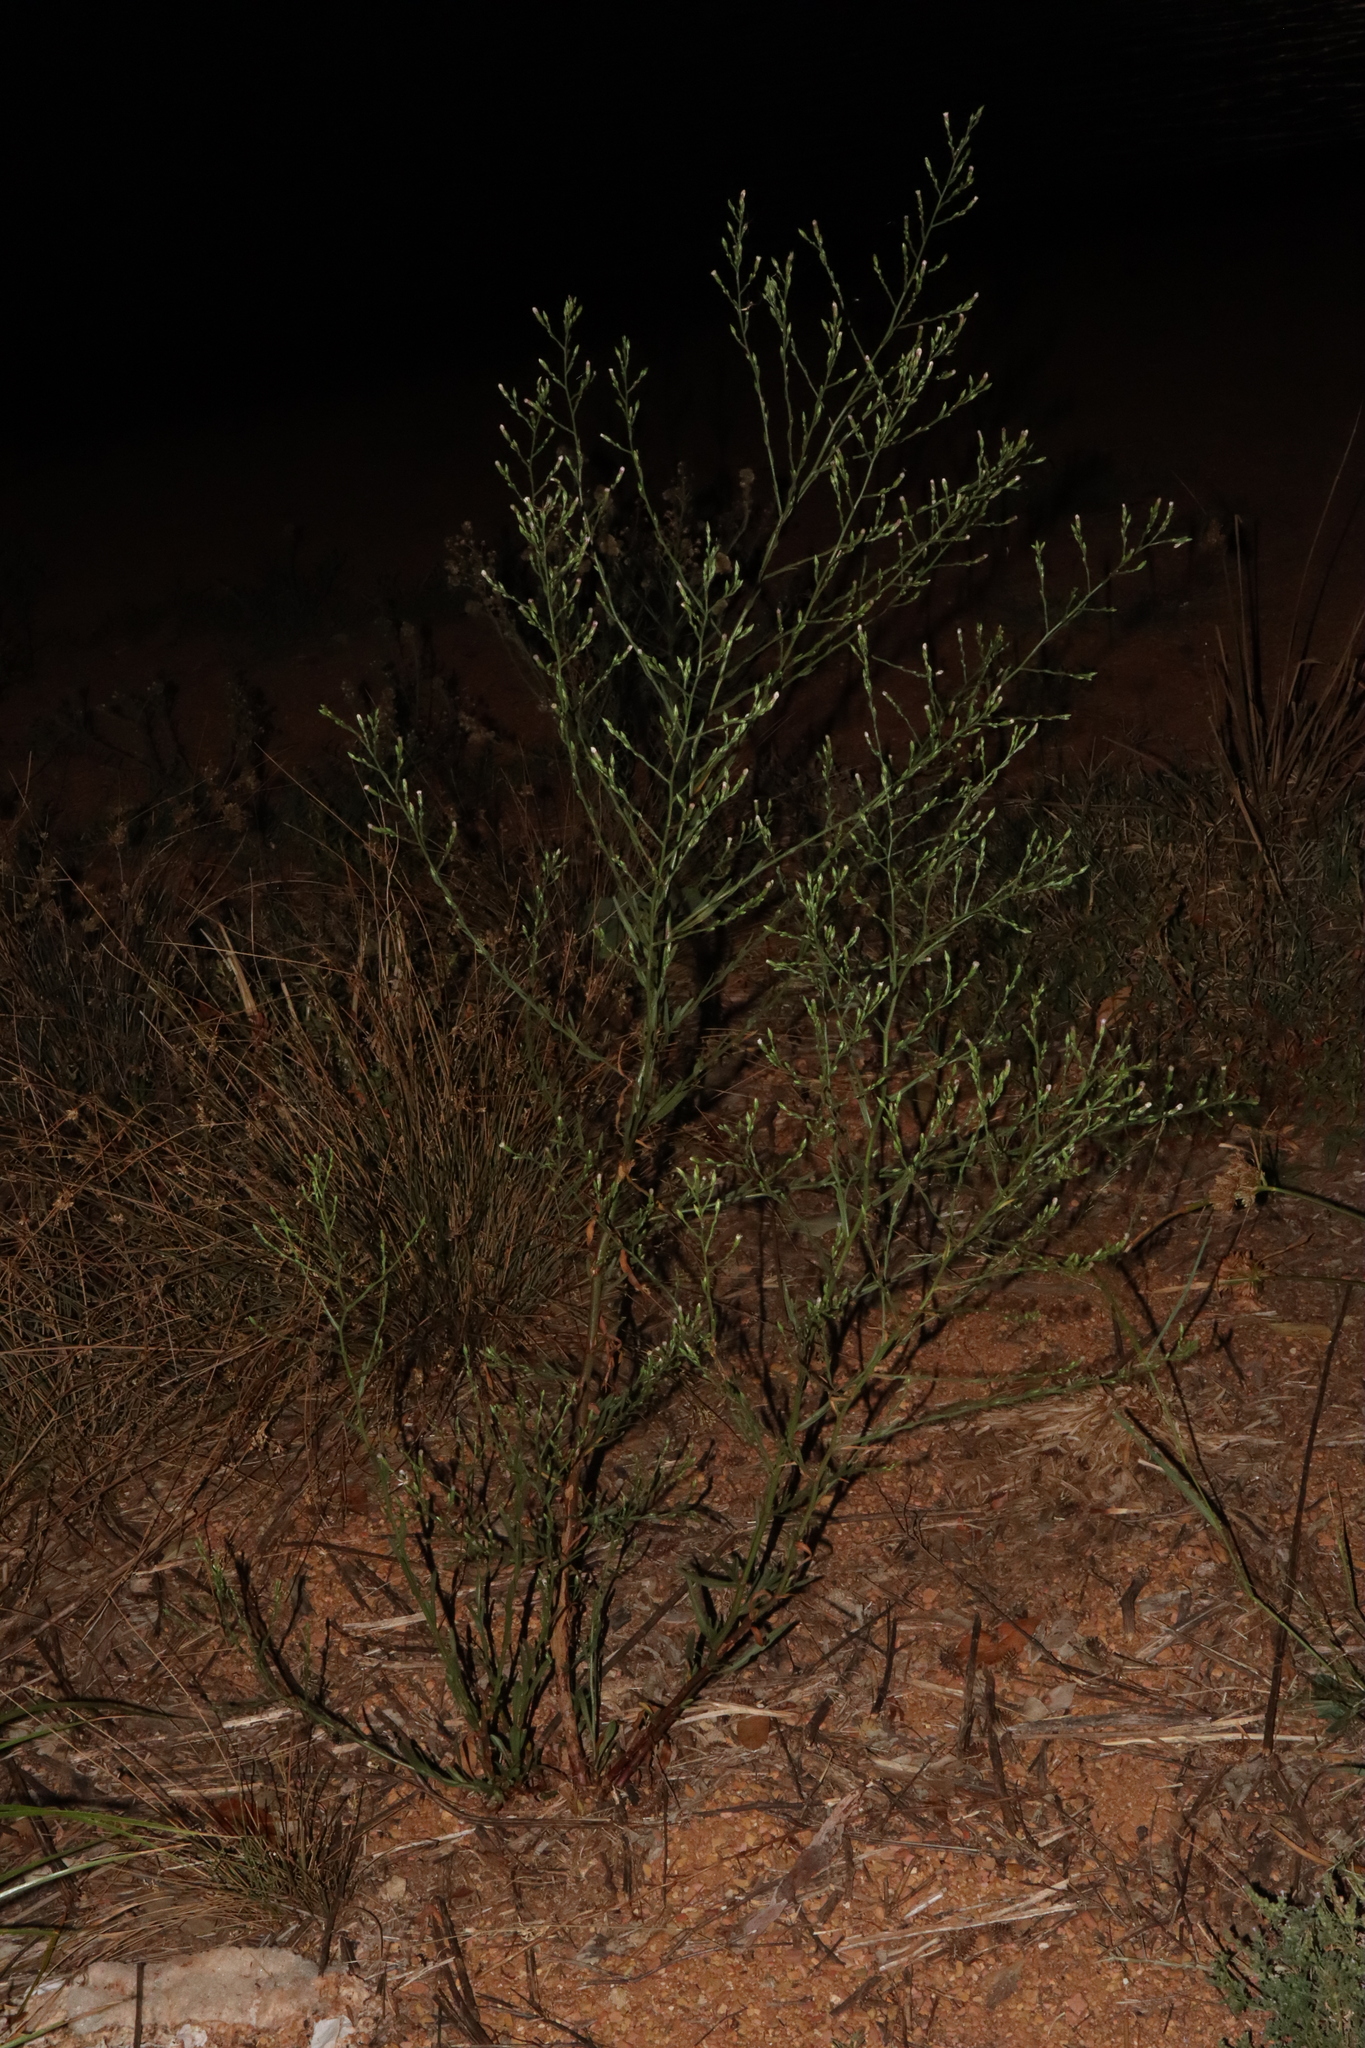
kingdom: Plantae
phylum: Tracheophyta
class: Magnoliopsida
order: Asterales
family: Asteraceae
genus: Symphyotrichum
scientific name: Symphyotrichum squamatum
